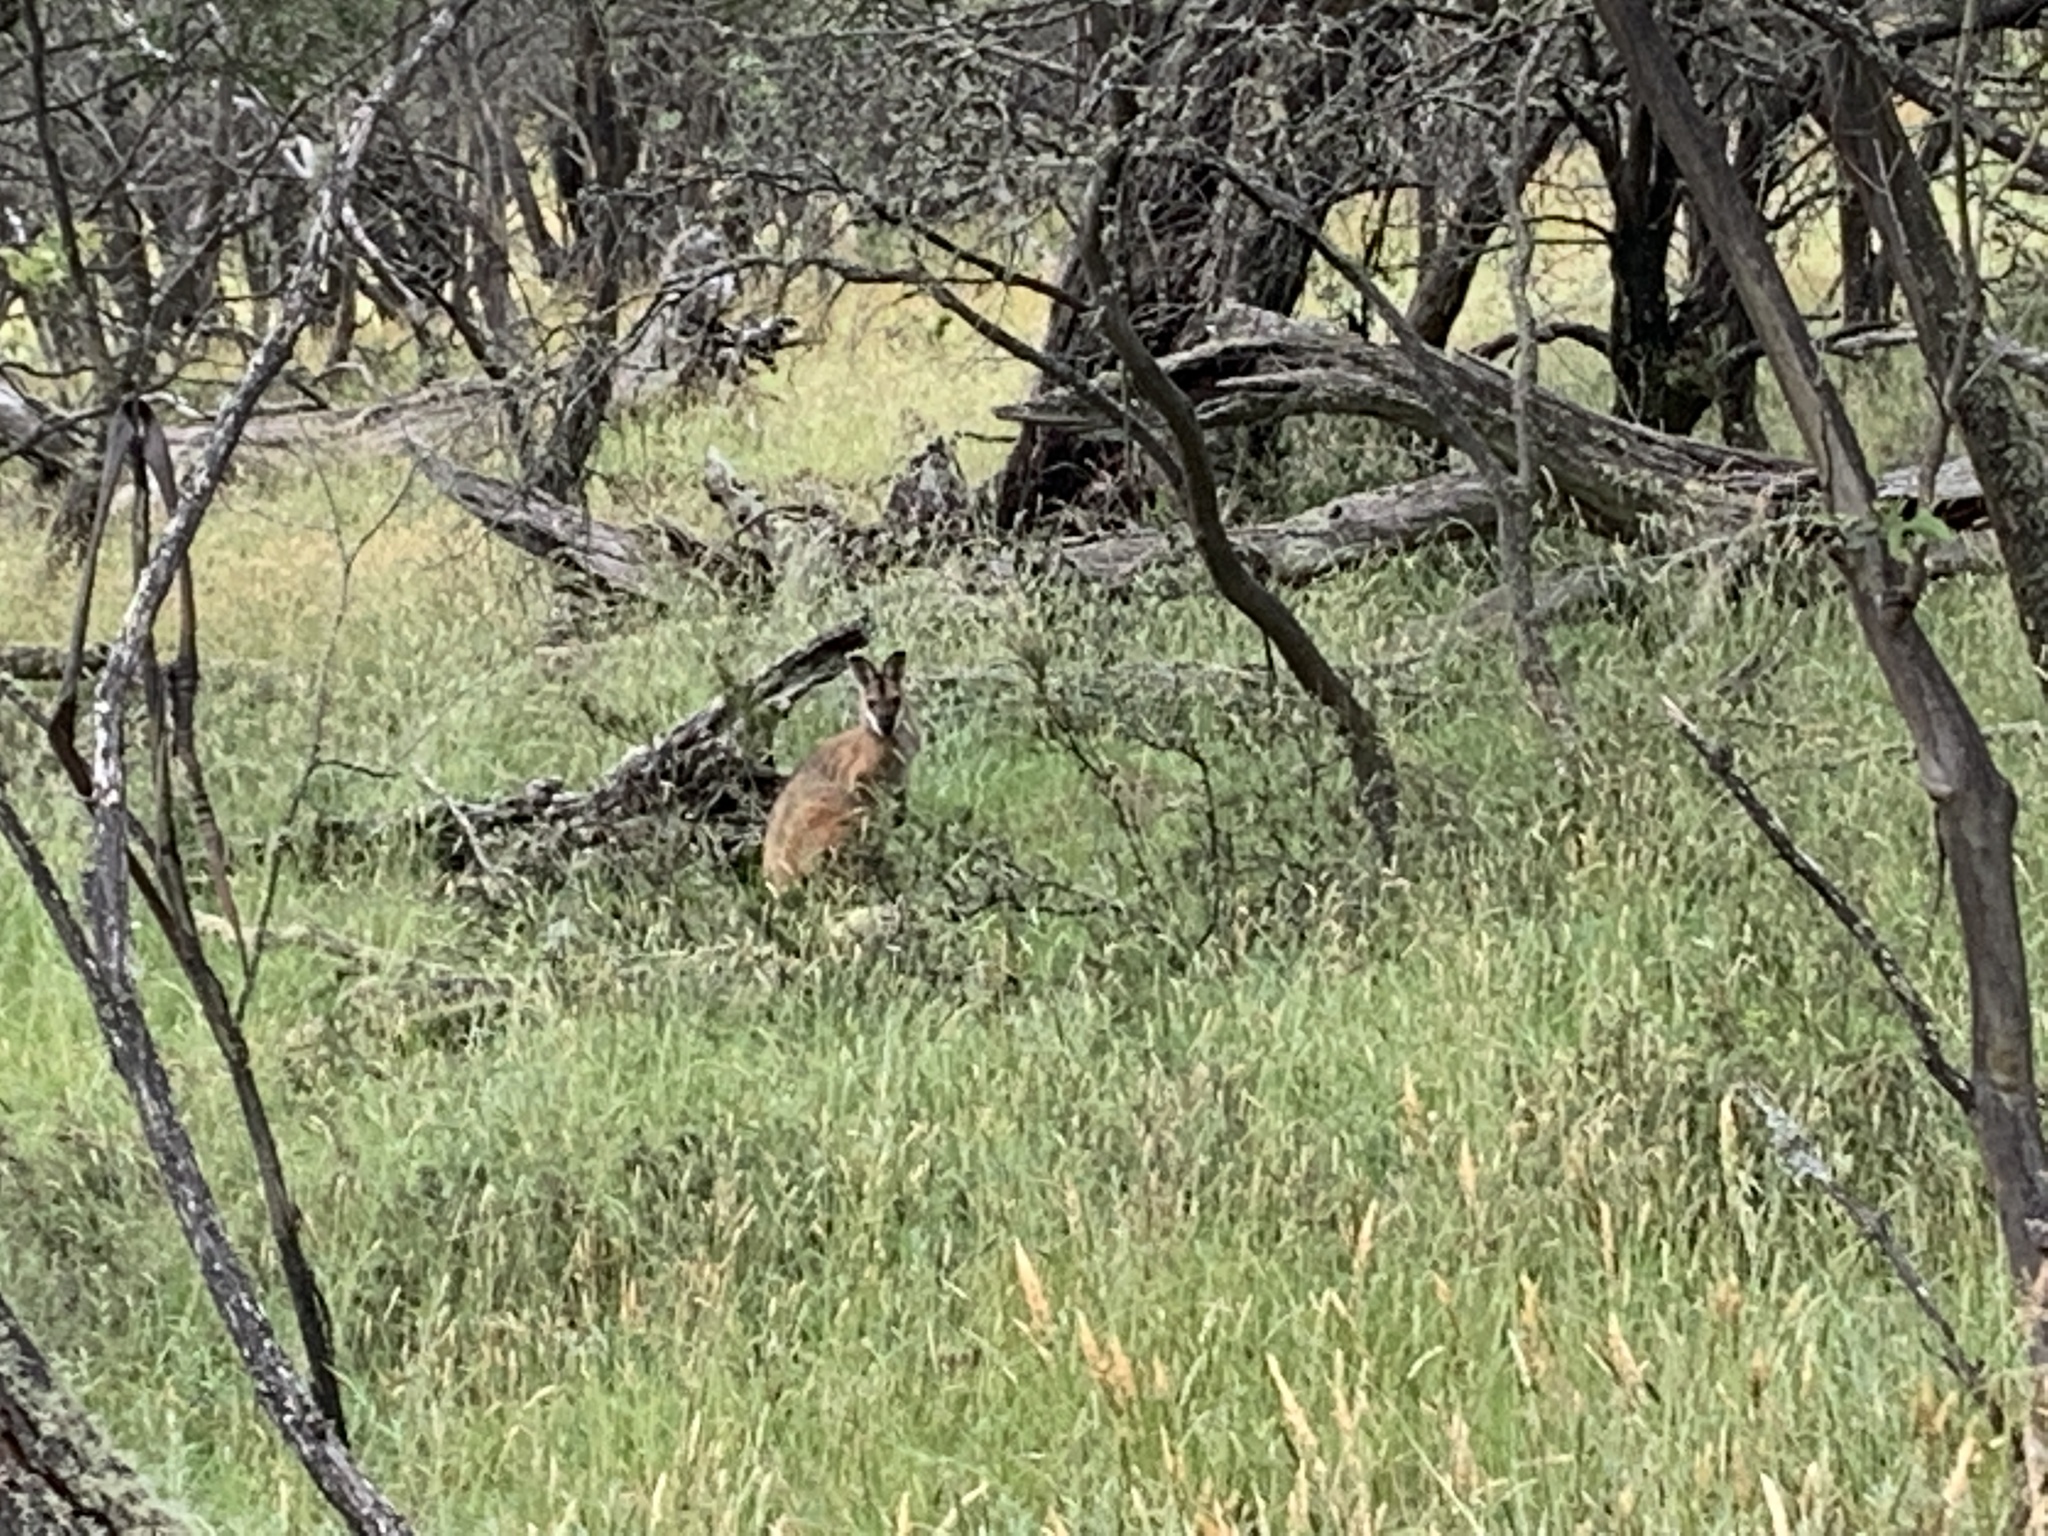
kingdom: Animalia
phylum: Chordata
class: Mammalia
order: Diprotodontia
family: Macropodidae
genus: Notamacropus
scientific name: Notamacropus rufogriseus
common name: Red-necked wallaby
